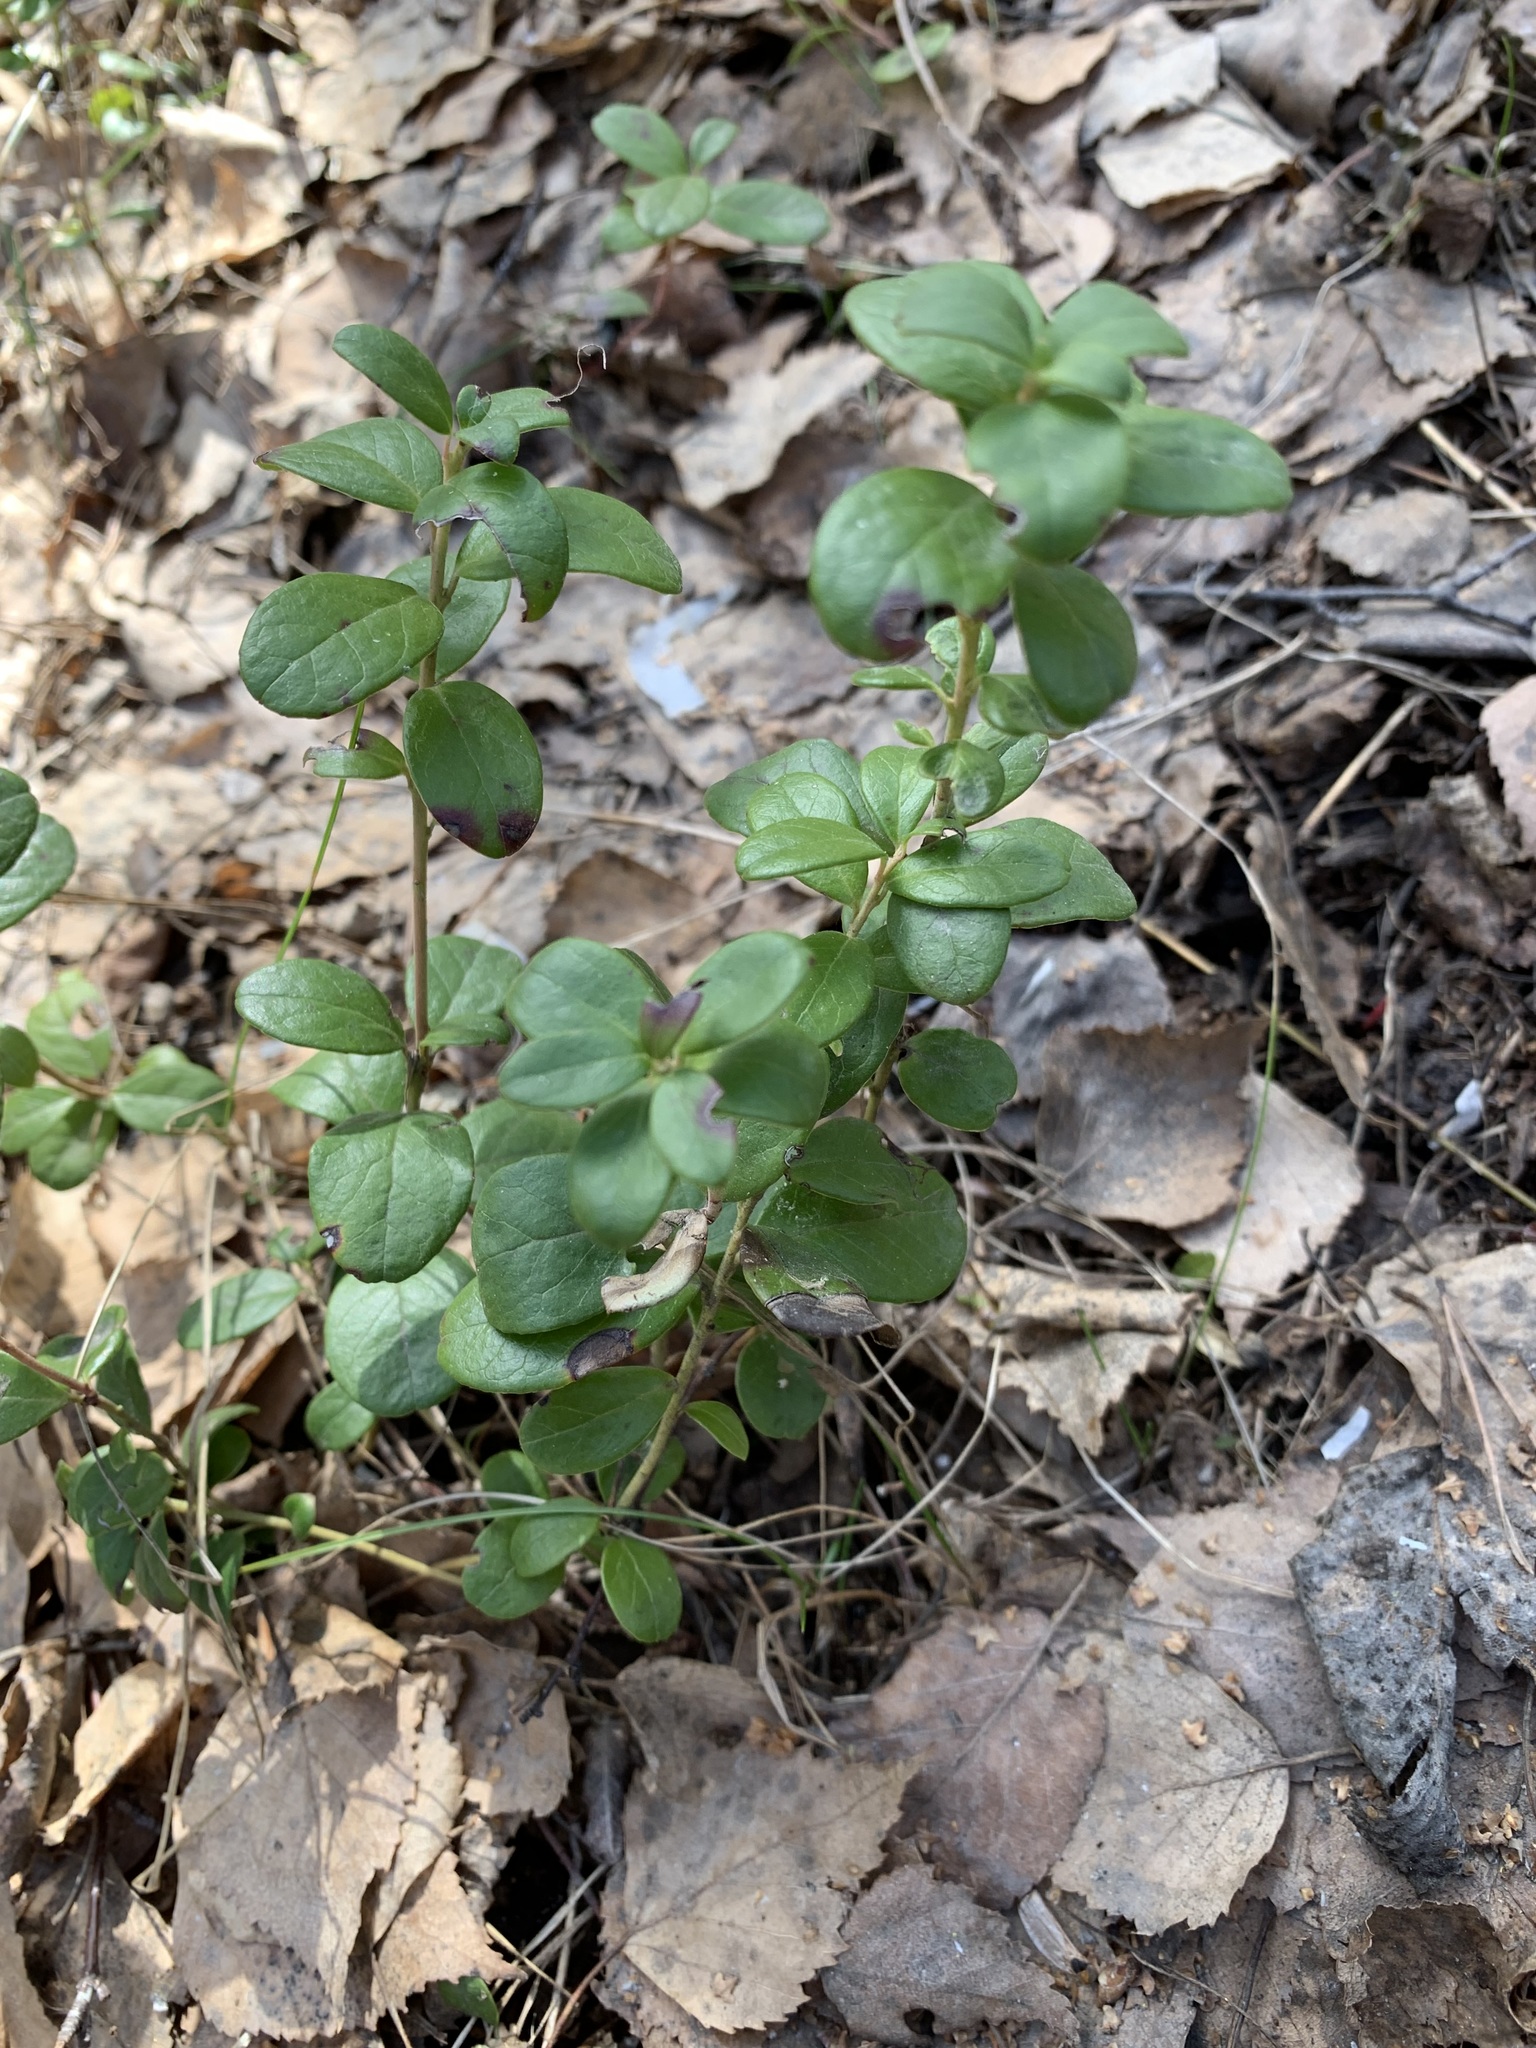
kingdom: Plantae
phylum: Tracheophyta
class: Magnoliopsida
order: Ericales
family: Ericaceae
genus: Vaccinium
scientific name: Vaccinium vitis-idaea
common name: Cowberry
